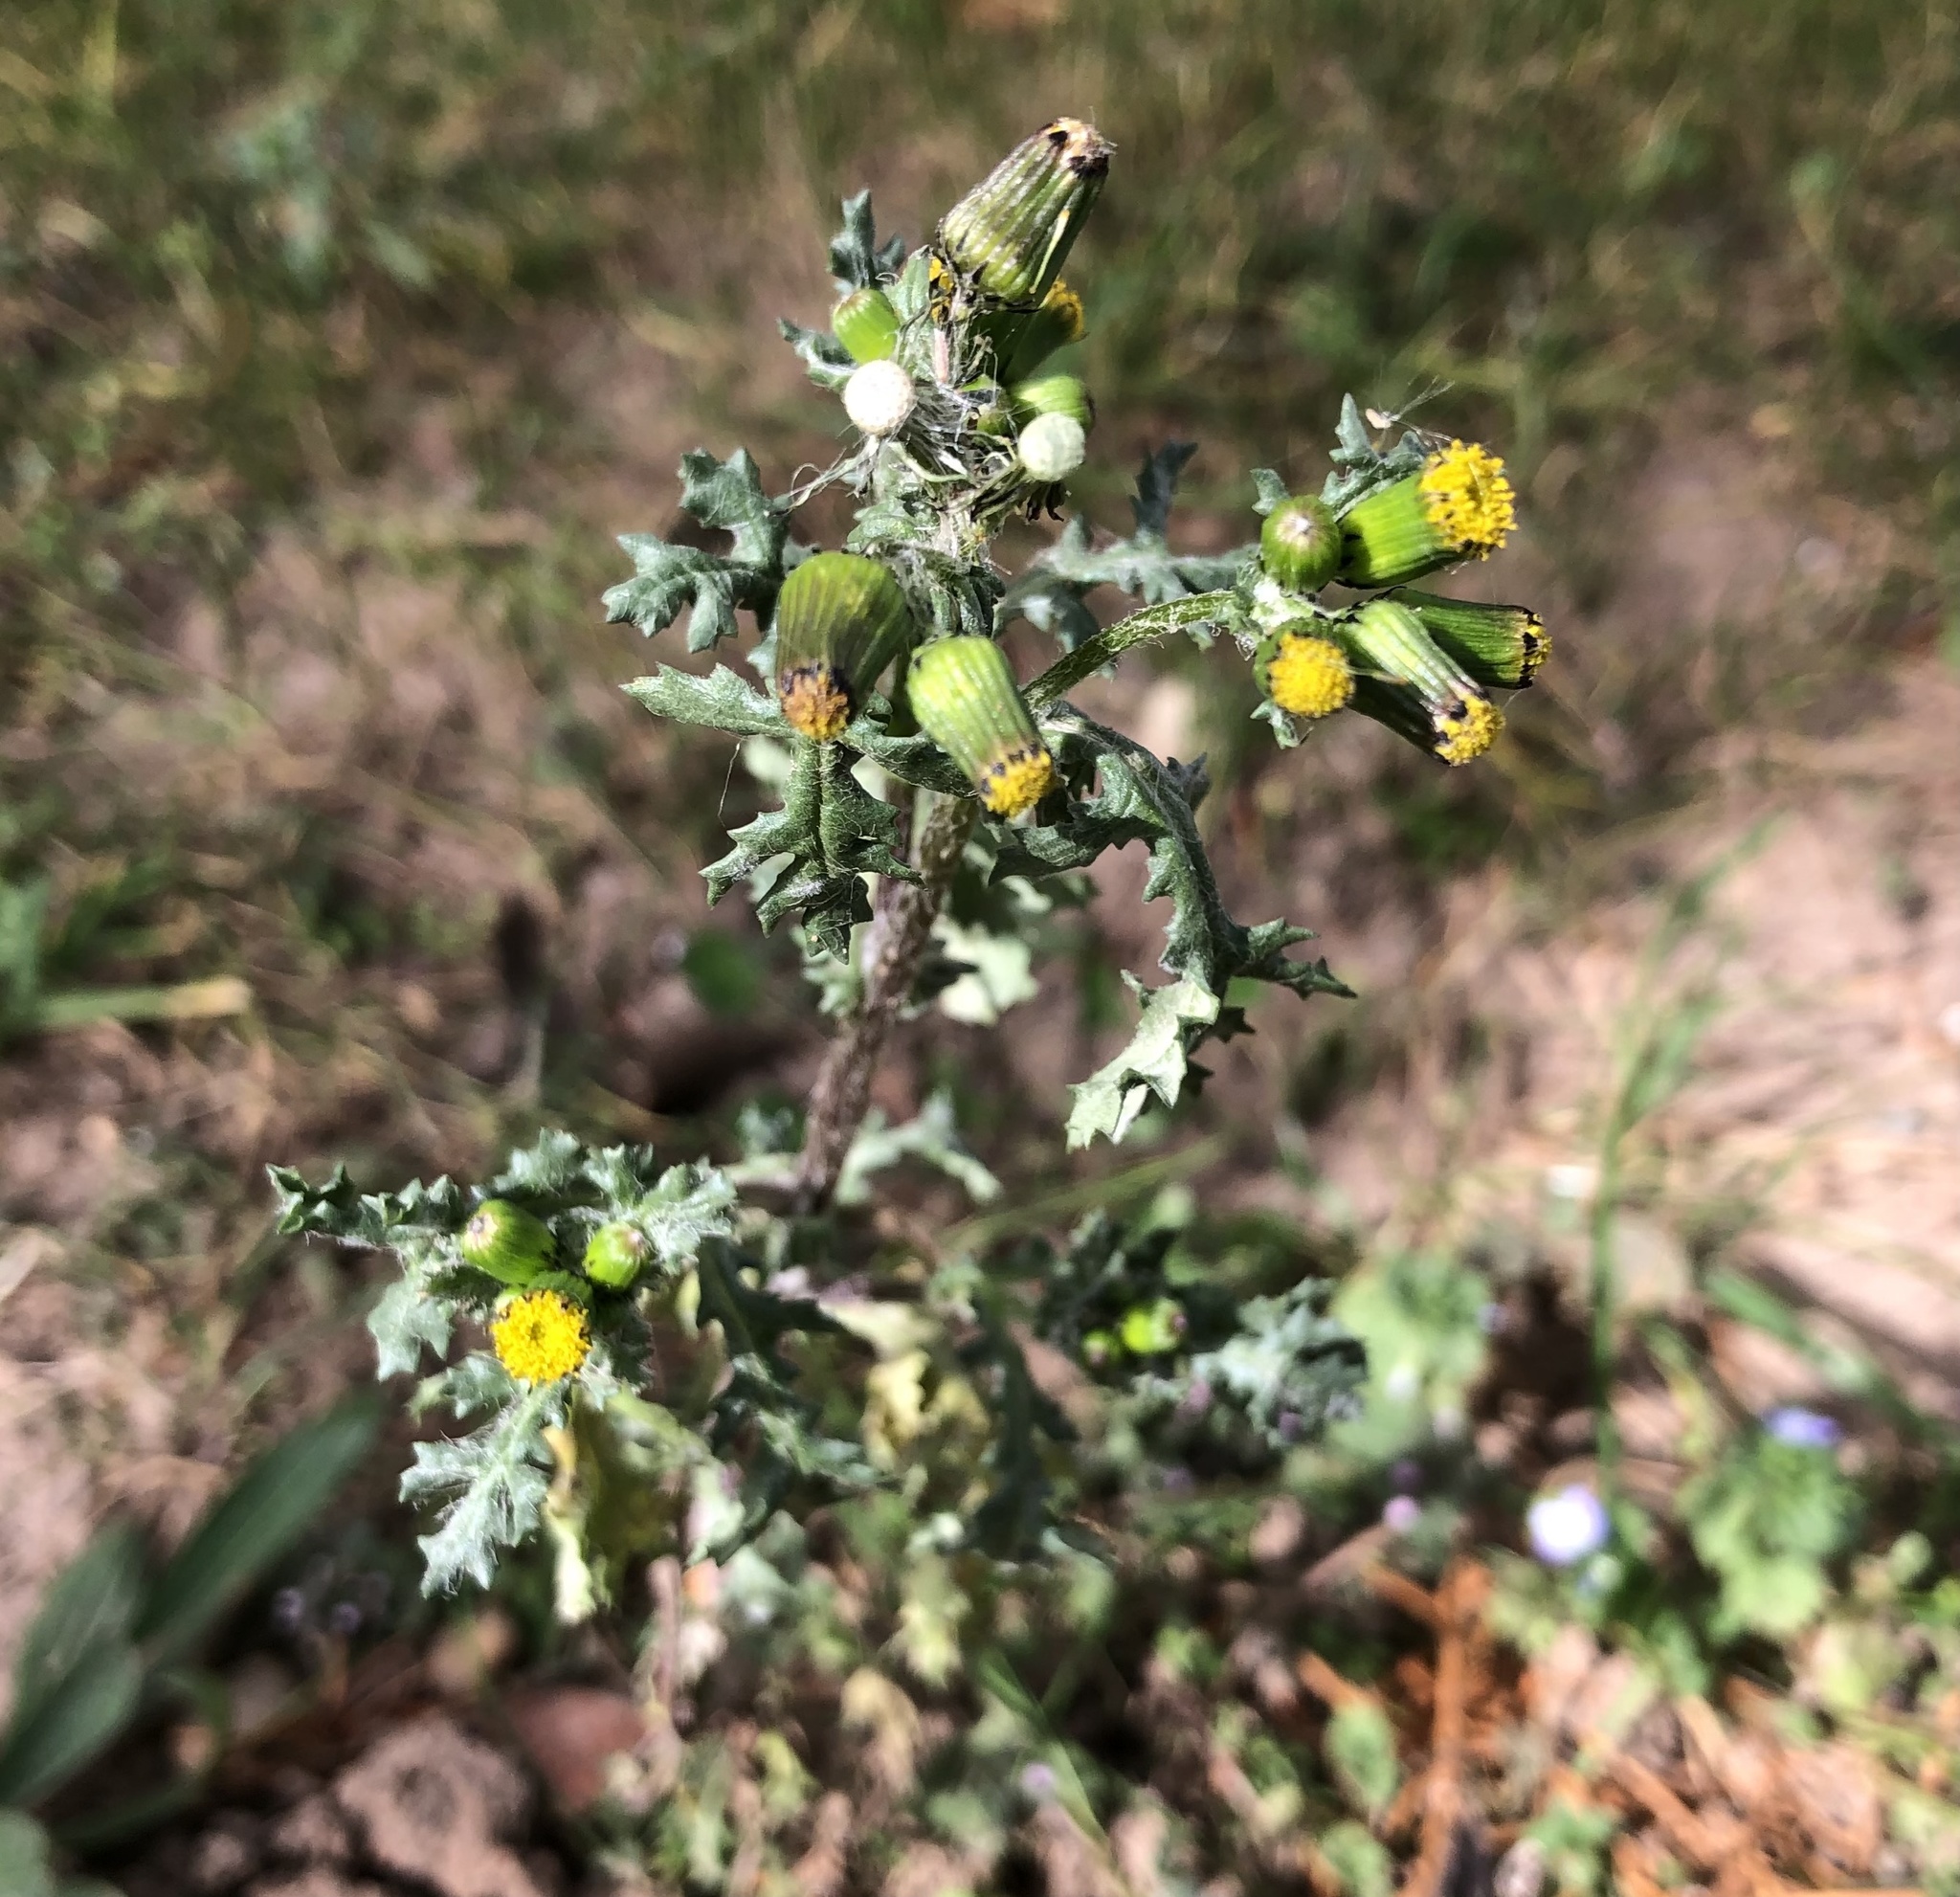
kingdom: Plantae
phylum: Tracheophyta
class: Magnoliopsida
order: Asterales
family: Asteraceae
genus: Senecio
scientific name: Senecio vulgaris
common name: Old-man-in-the-spring
